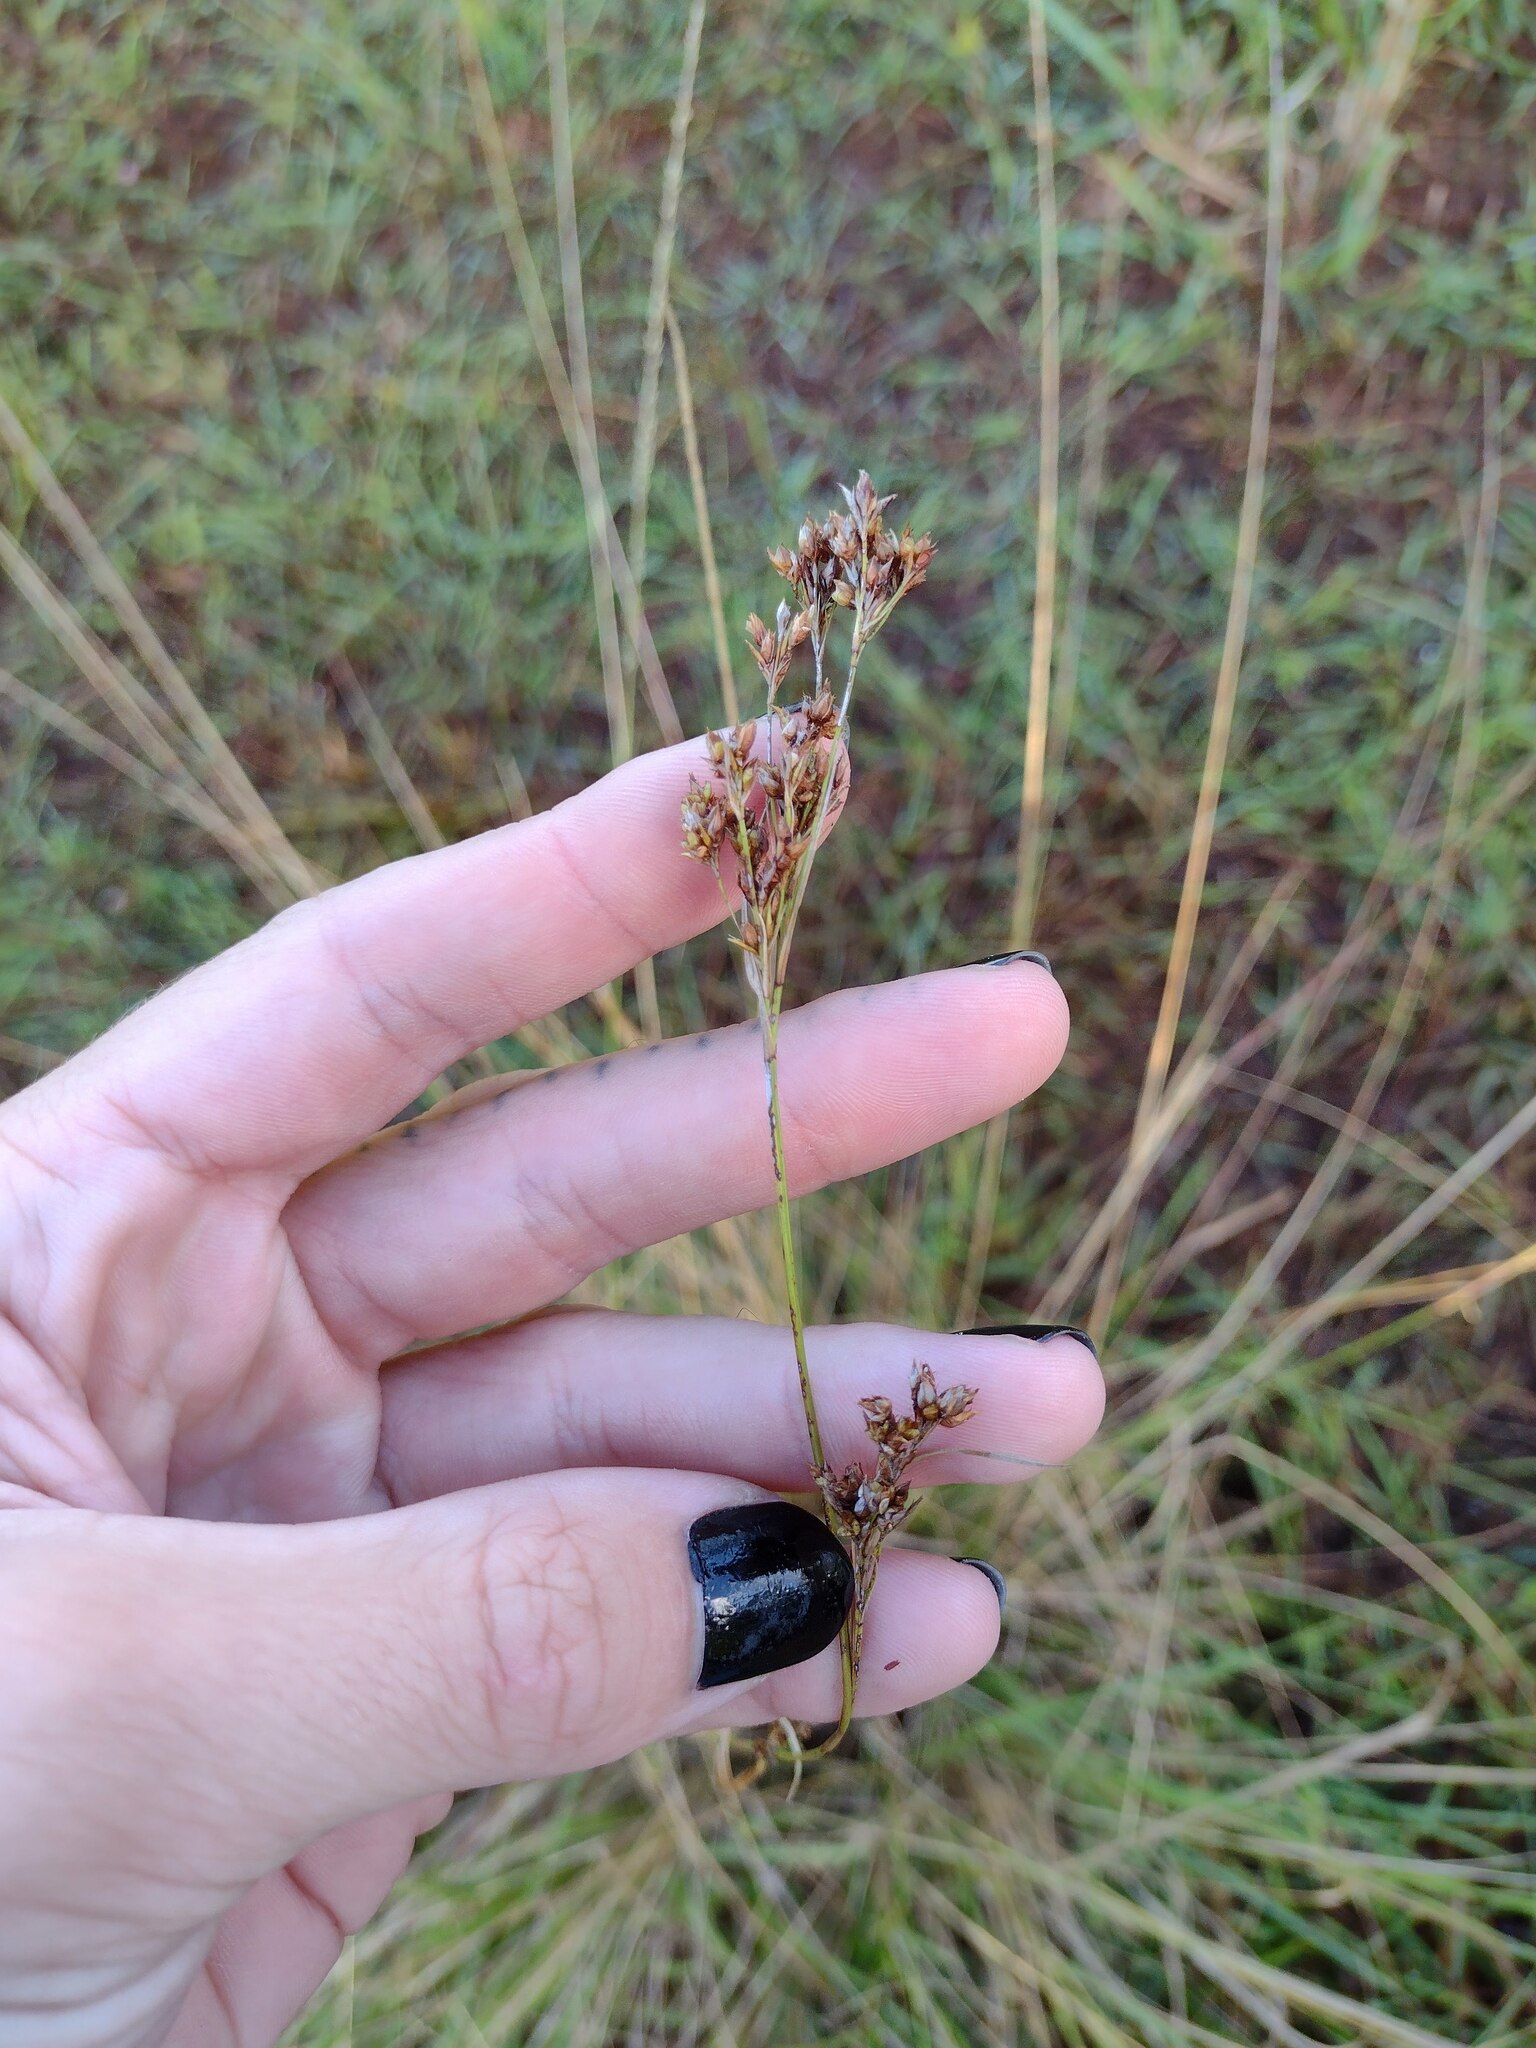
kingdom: Plantae
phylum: Tracheophyta
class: Liliopsida
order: Poales
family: Cyperaceae
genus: Rhynchospora
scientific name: Rhynchospora caduca
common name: Anglestem beaksedge
